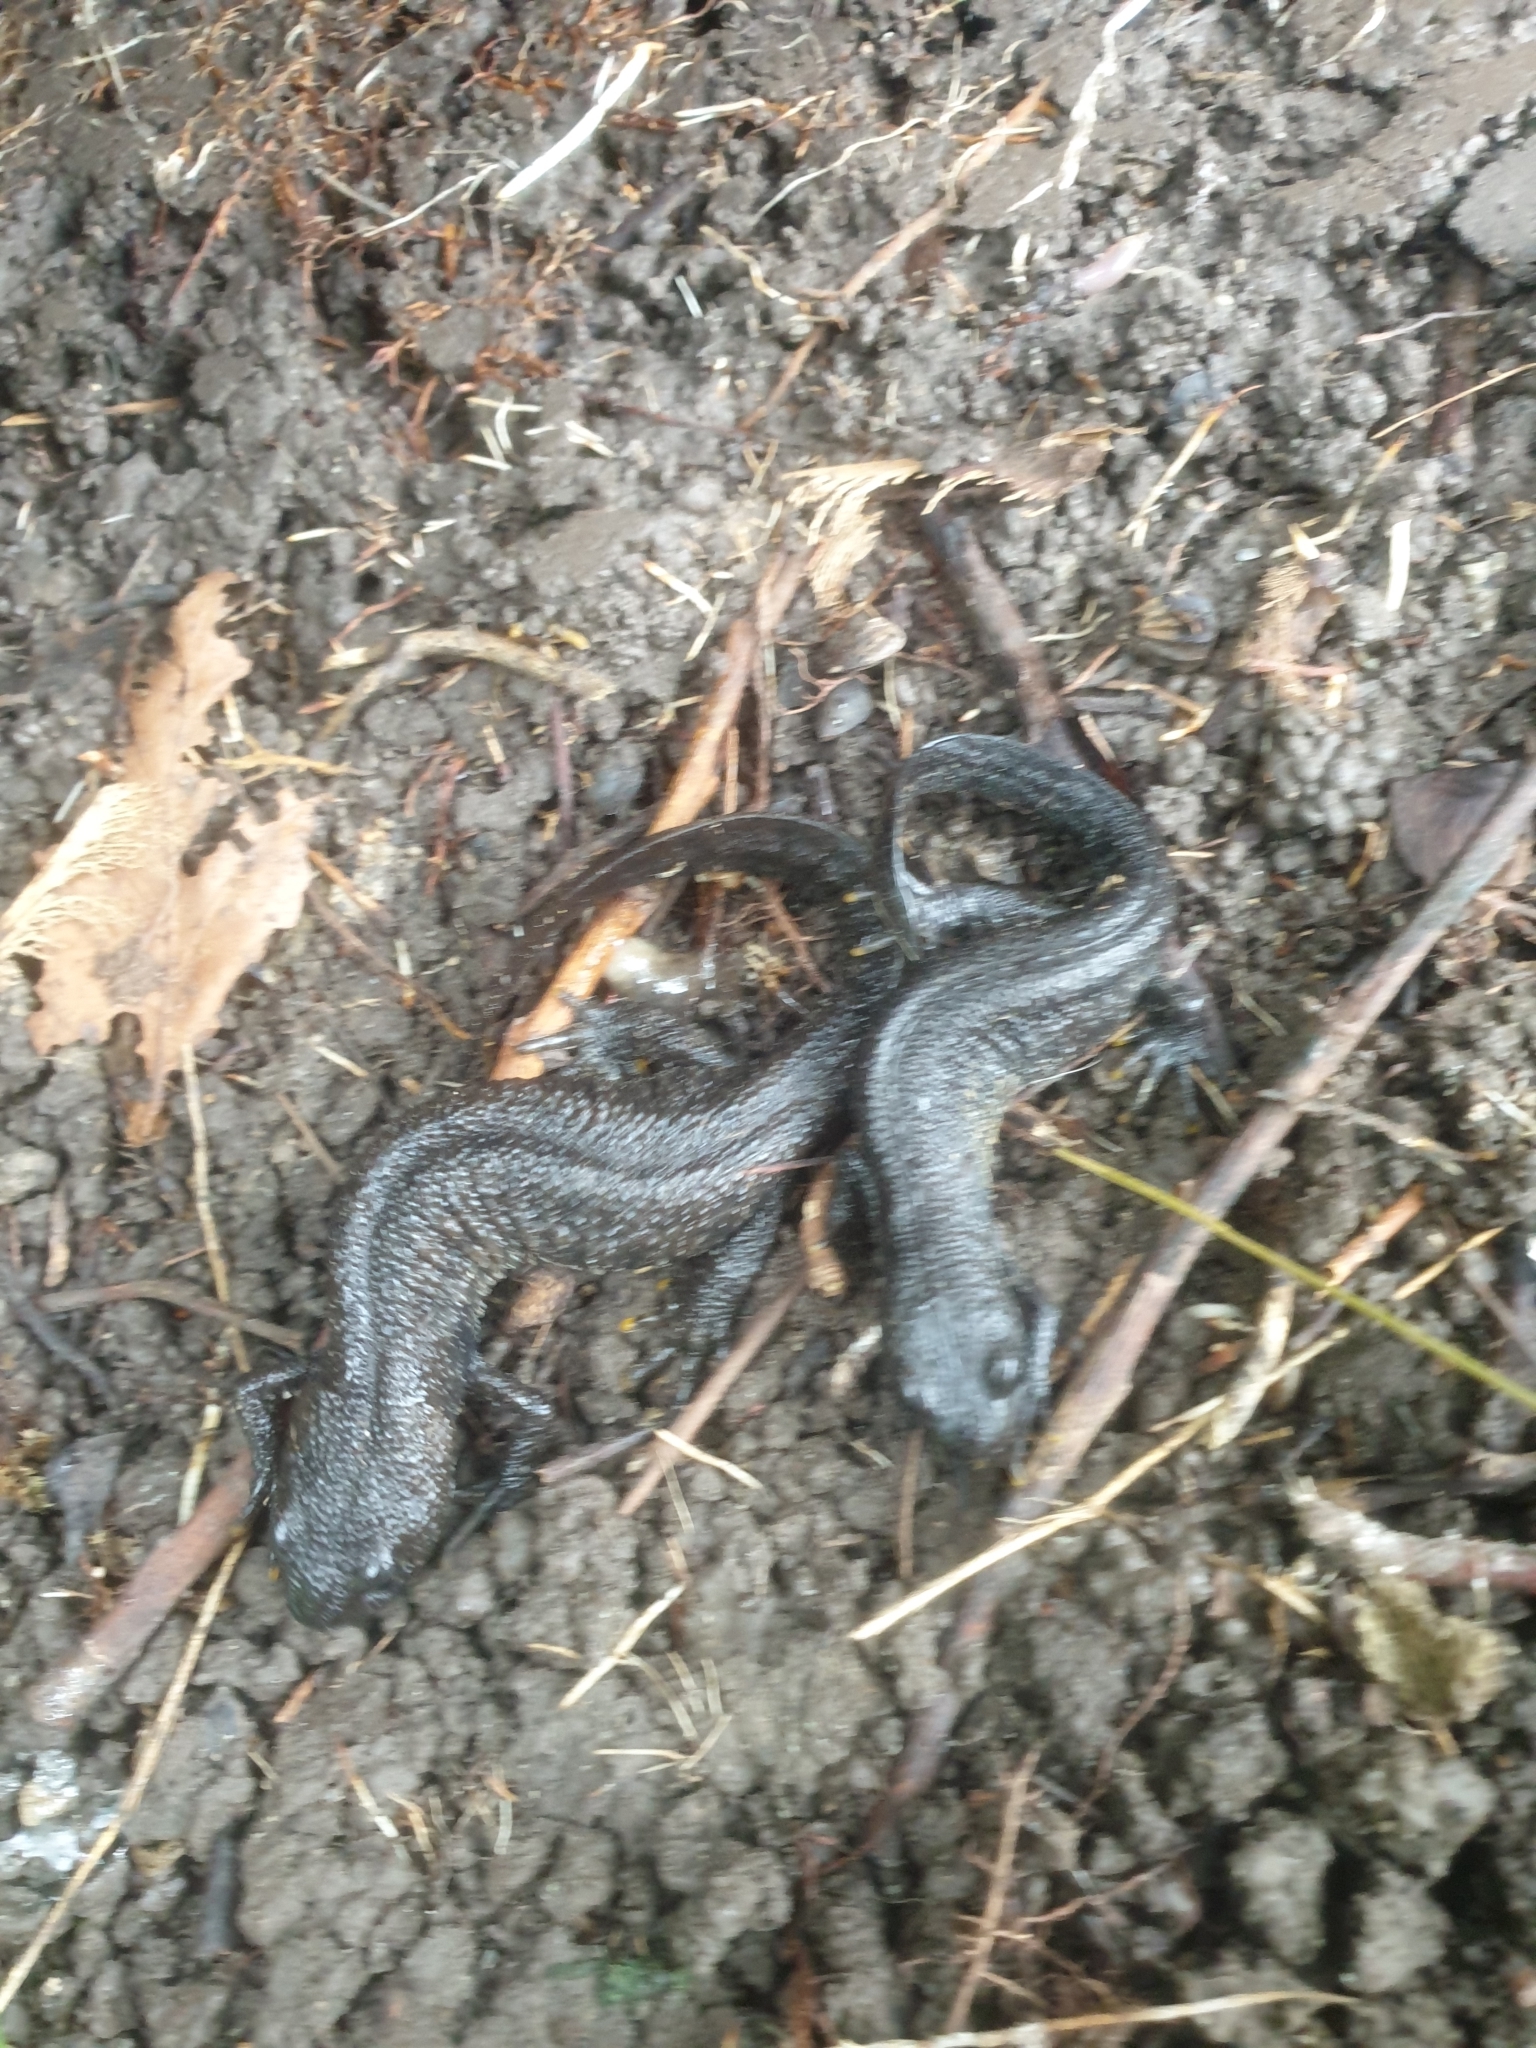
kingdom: Animalia
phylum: Chordata
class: Amphibia
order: Caudata
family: Salamandridae
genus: Triturus
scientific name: Triturus cristatus
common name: Crested newt
